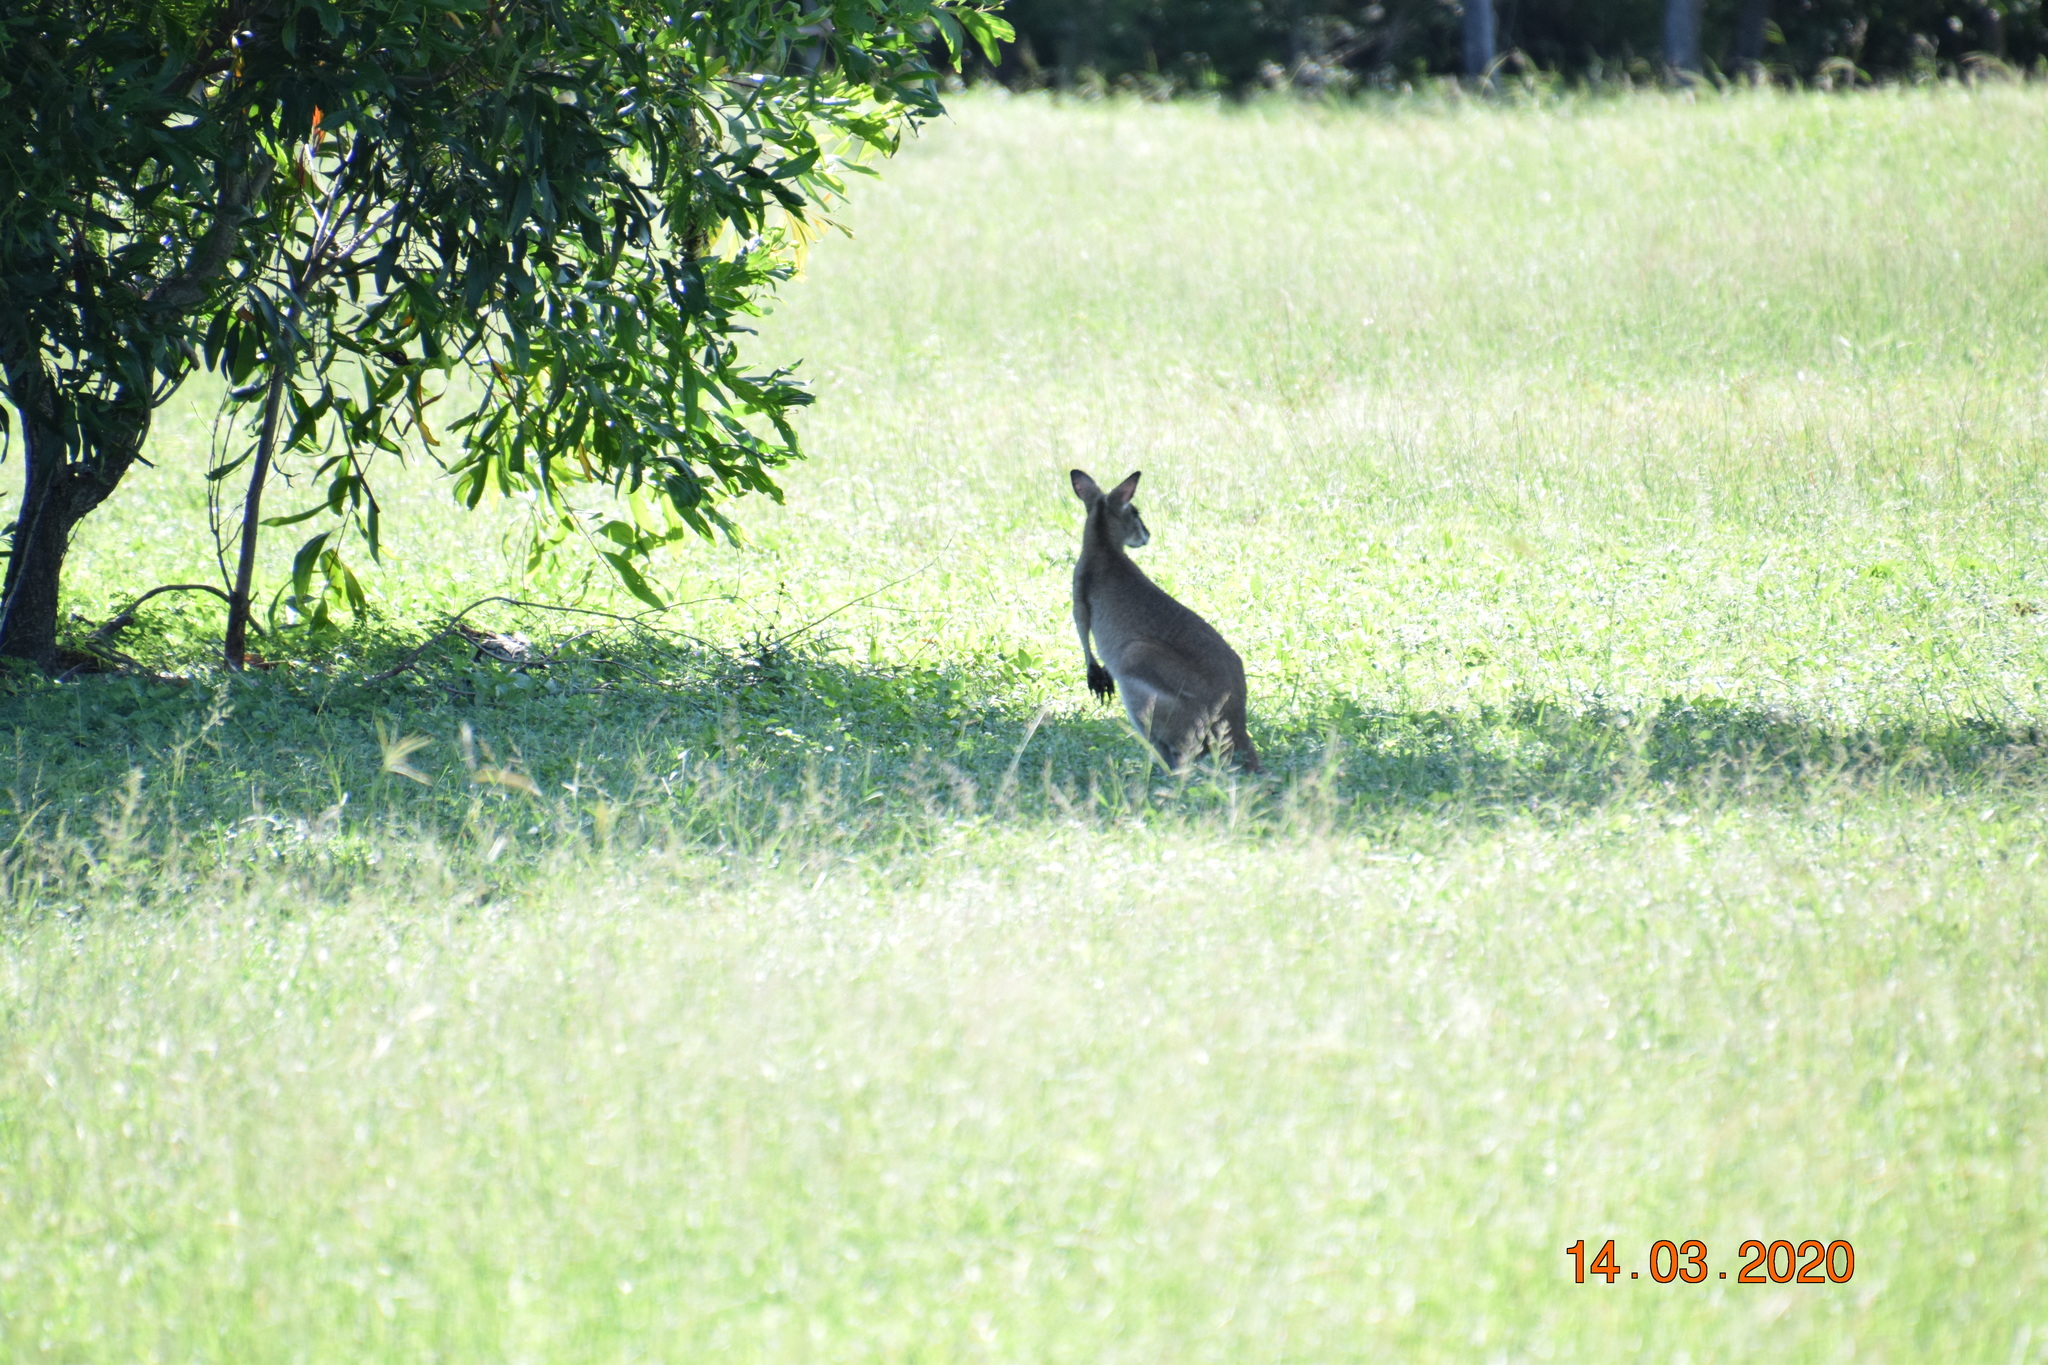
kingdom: Animalia
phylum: Chordata
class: Mammalia
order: Diprotodontia
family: Macropodidae
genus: Macropus
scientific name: Macropus agilis
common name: Agile wallaby
